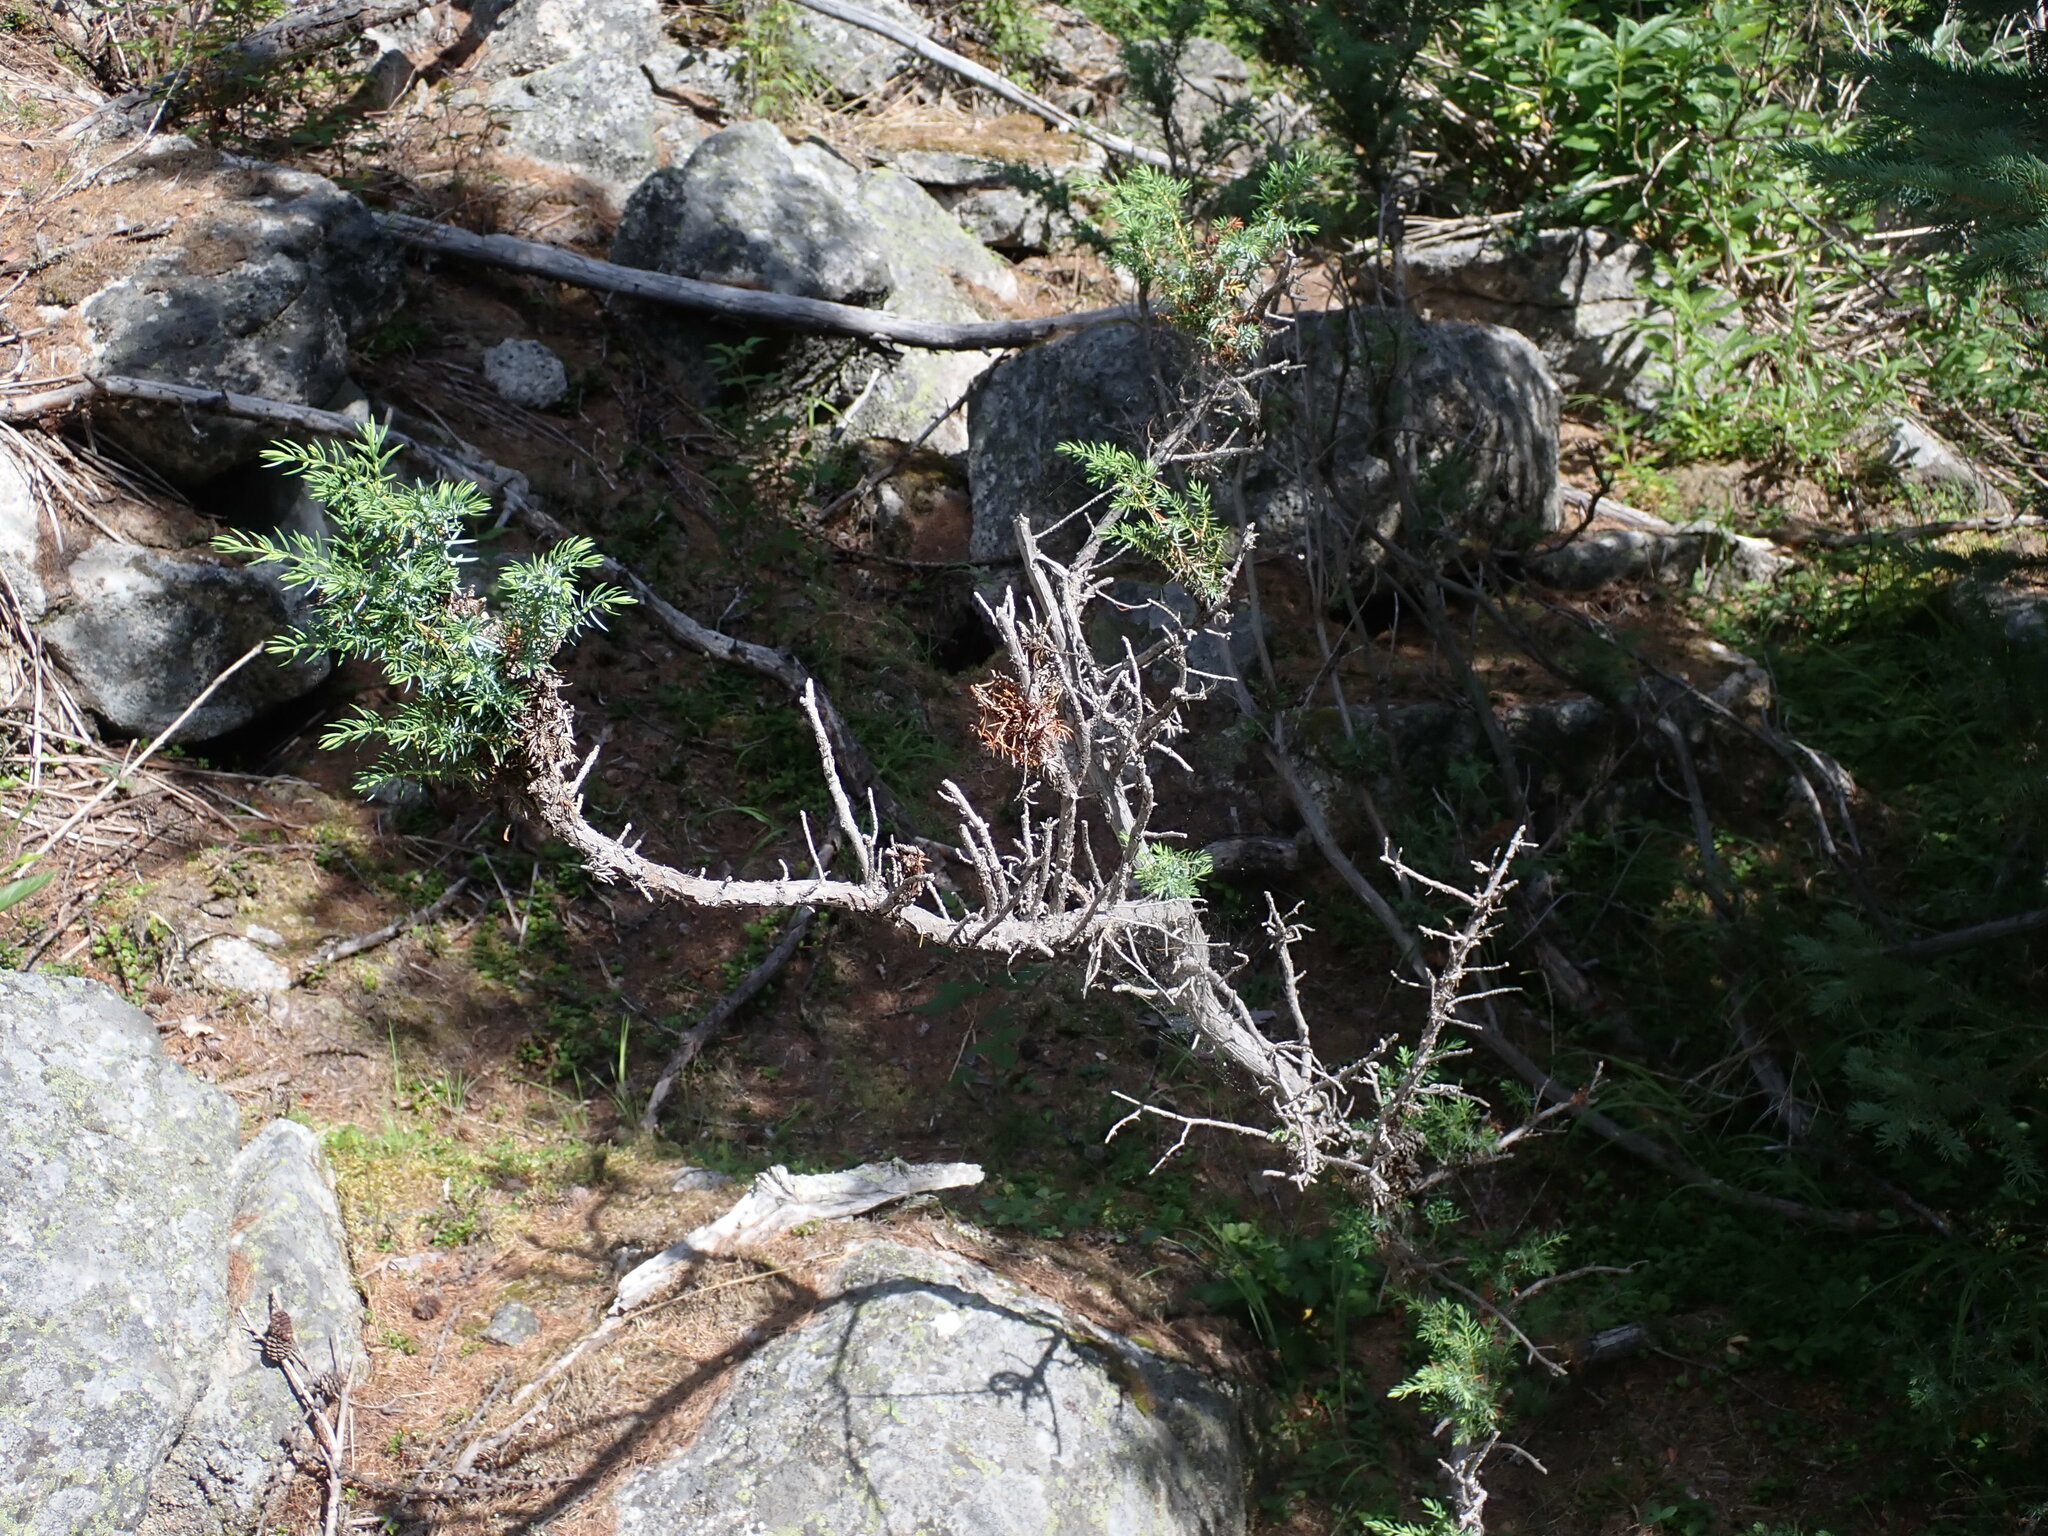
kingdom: Plantae
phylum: Tracheophyta
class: Pinopsida
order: Pinales
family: Cupressaceae
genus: Juniperus
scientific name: Juniperus communis
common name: Common juniper
